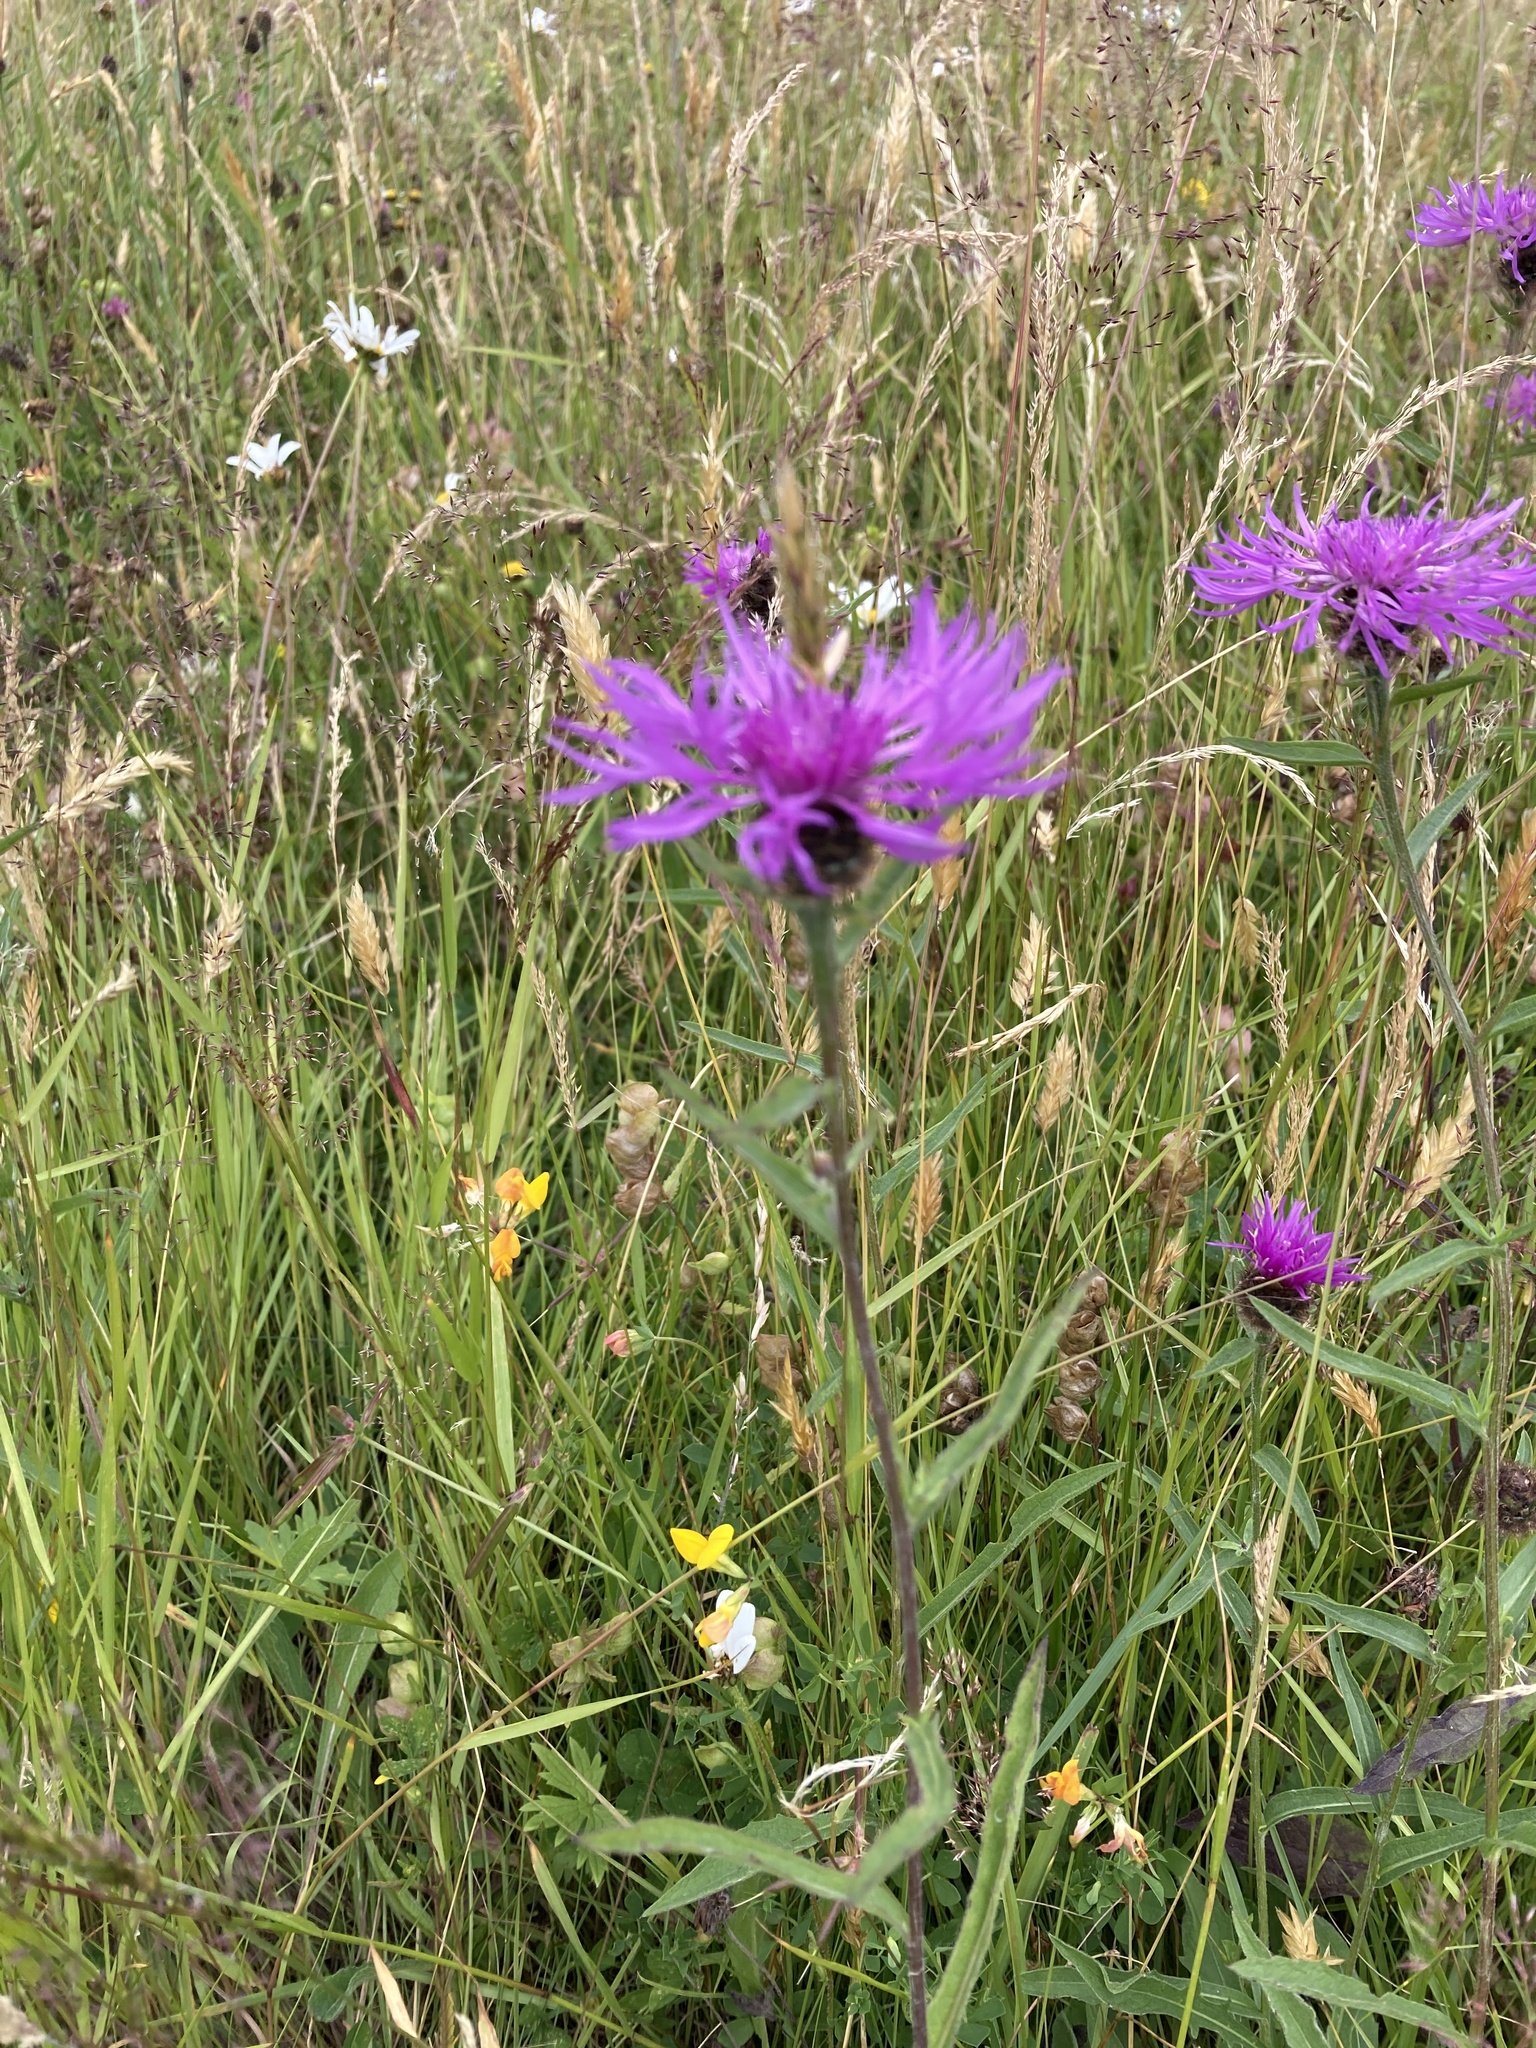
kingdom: Plantae
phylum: Tracheophyta
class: Magnoliopsida
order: Asterales
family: Asteraceae
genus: Centaurea
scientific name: Centaurea nigra
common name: Lesser knapweed
